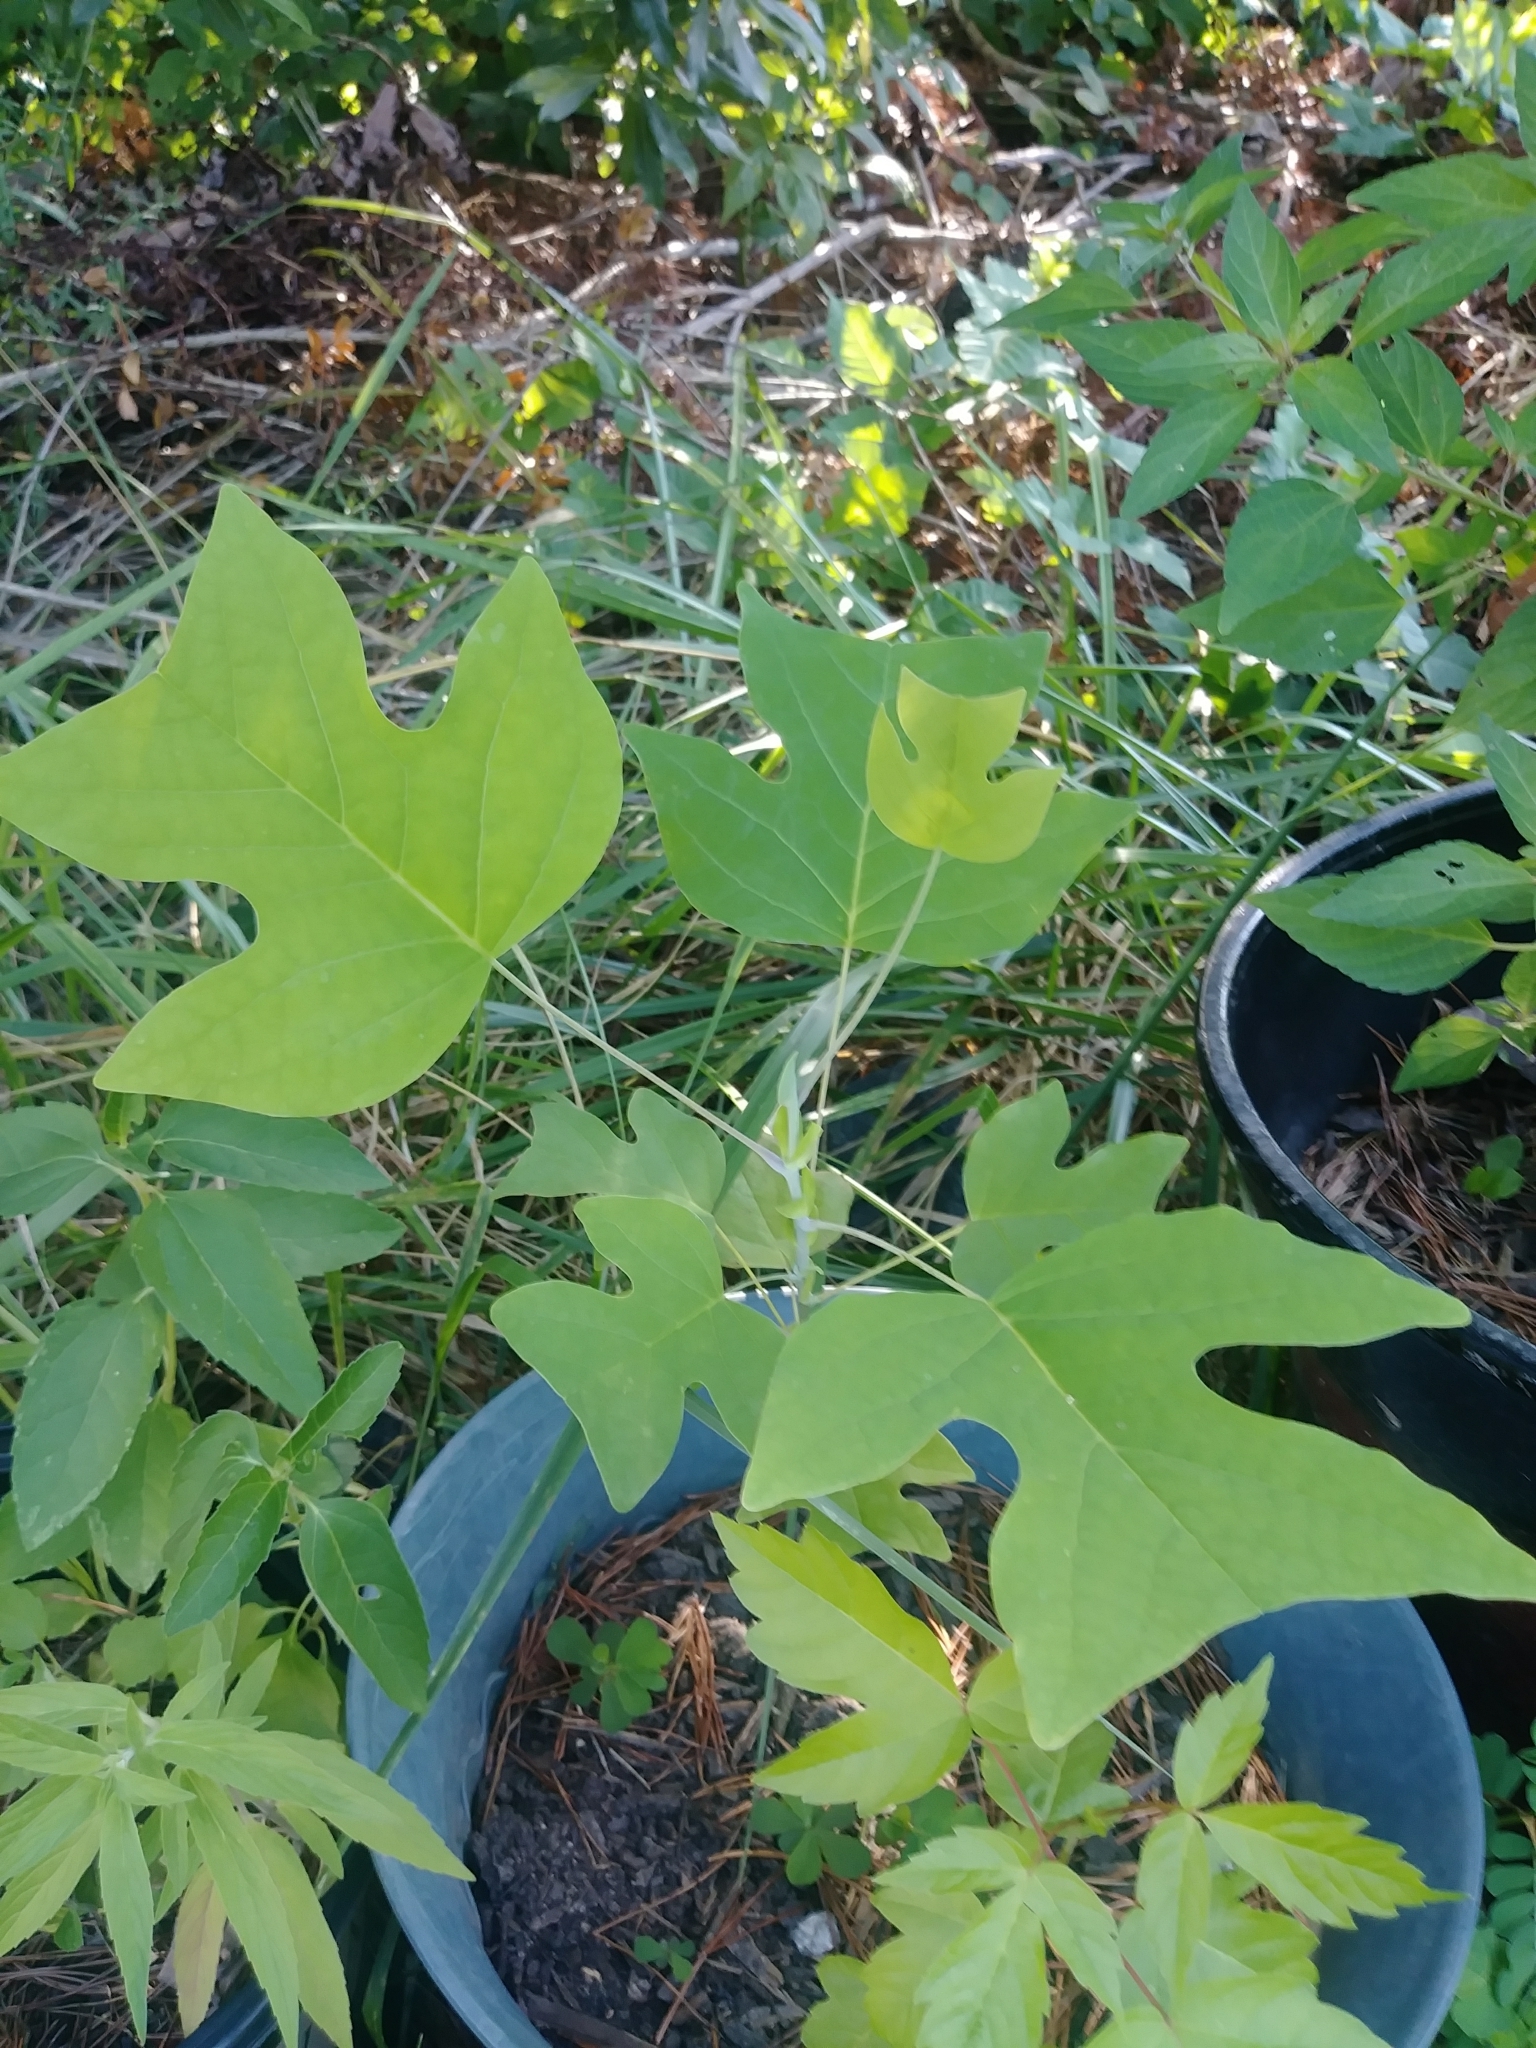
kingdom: Plantae
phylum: Tracheophyta
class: Magnoliopsida
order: Magnoliales
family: Magnoliaceae
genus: Liriodendron
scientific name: Liriodendron tulipifera
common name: Tulip tree
